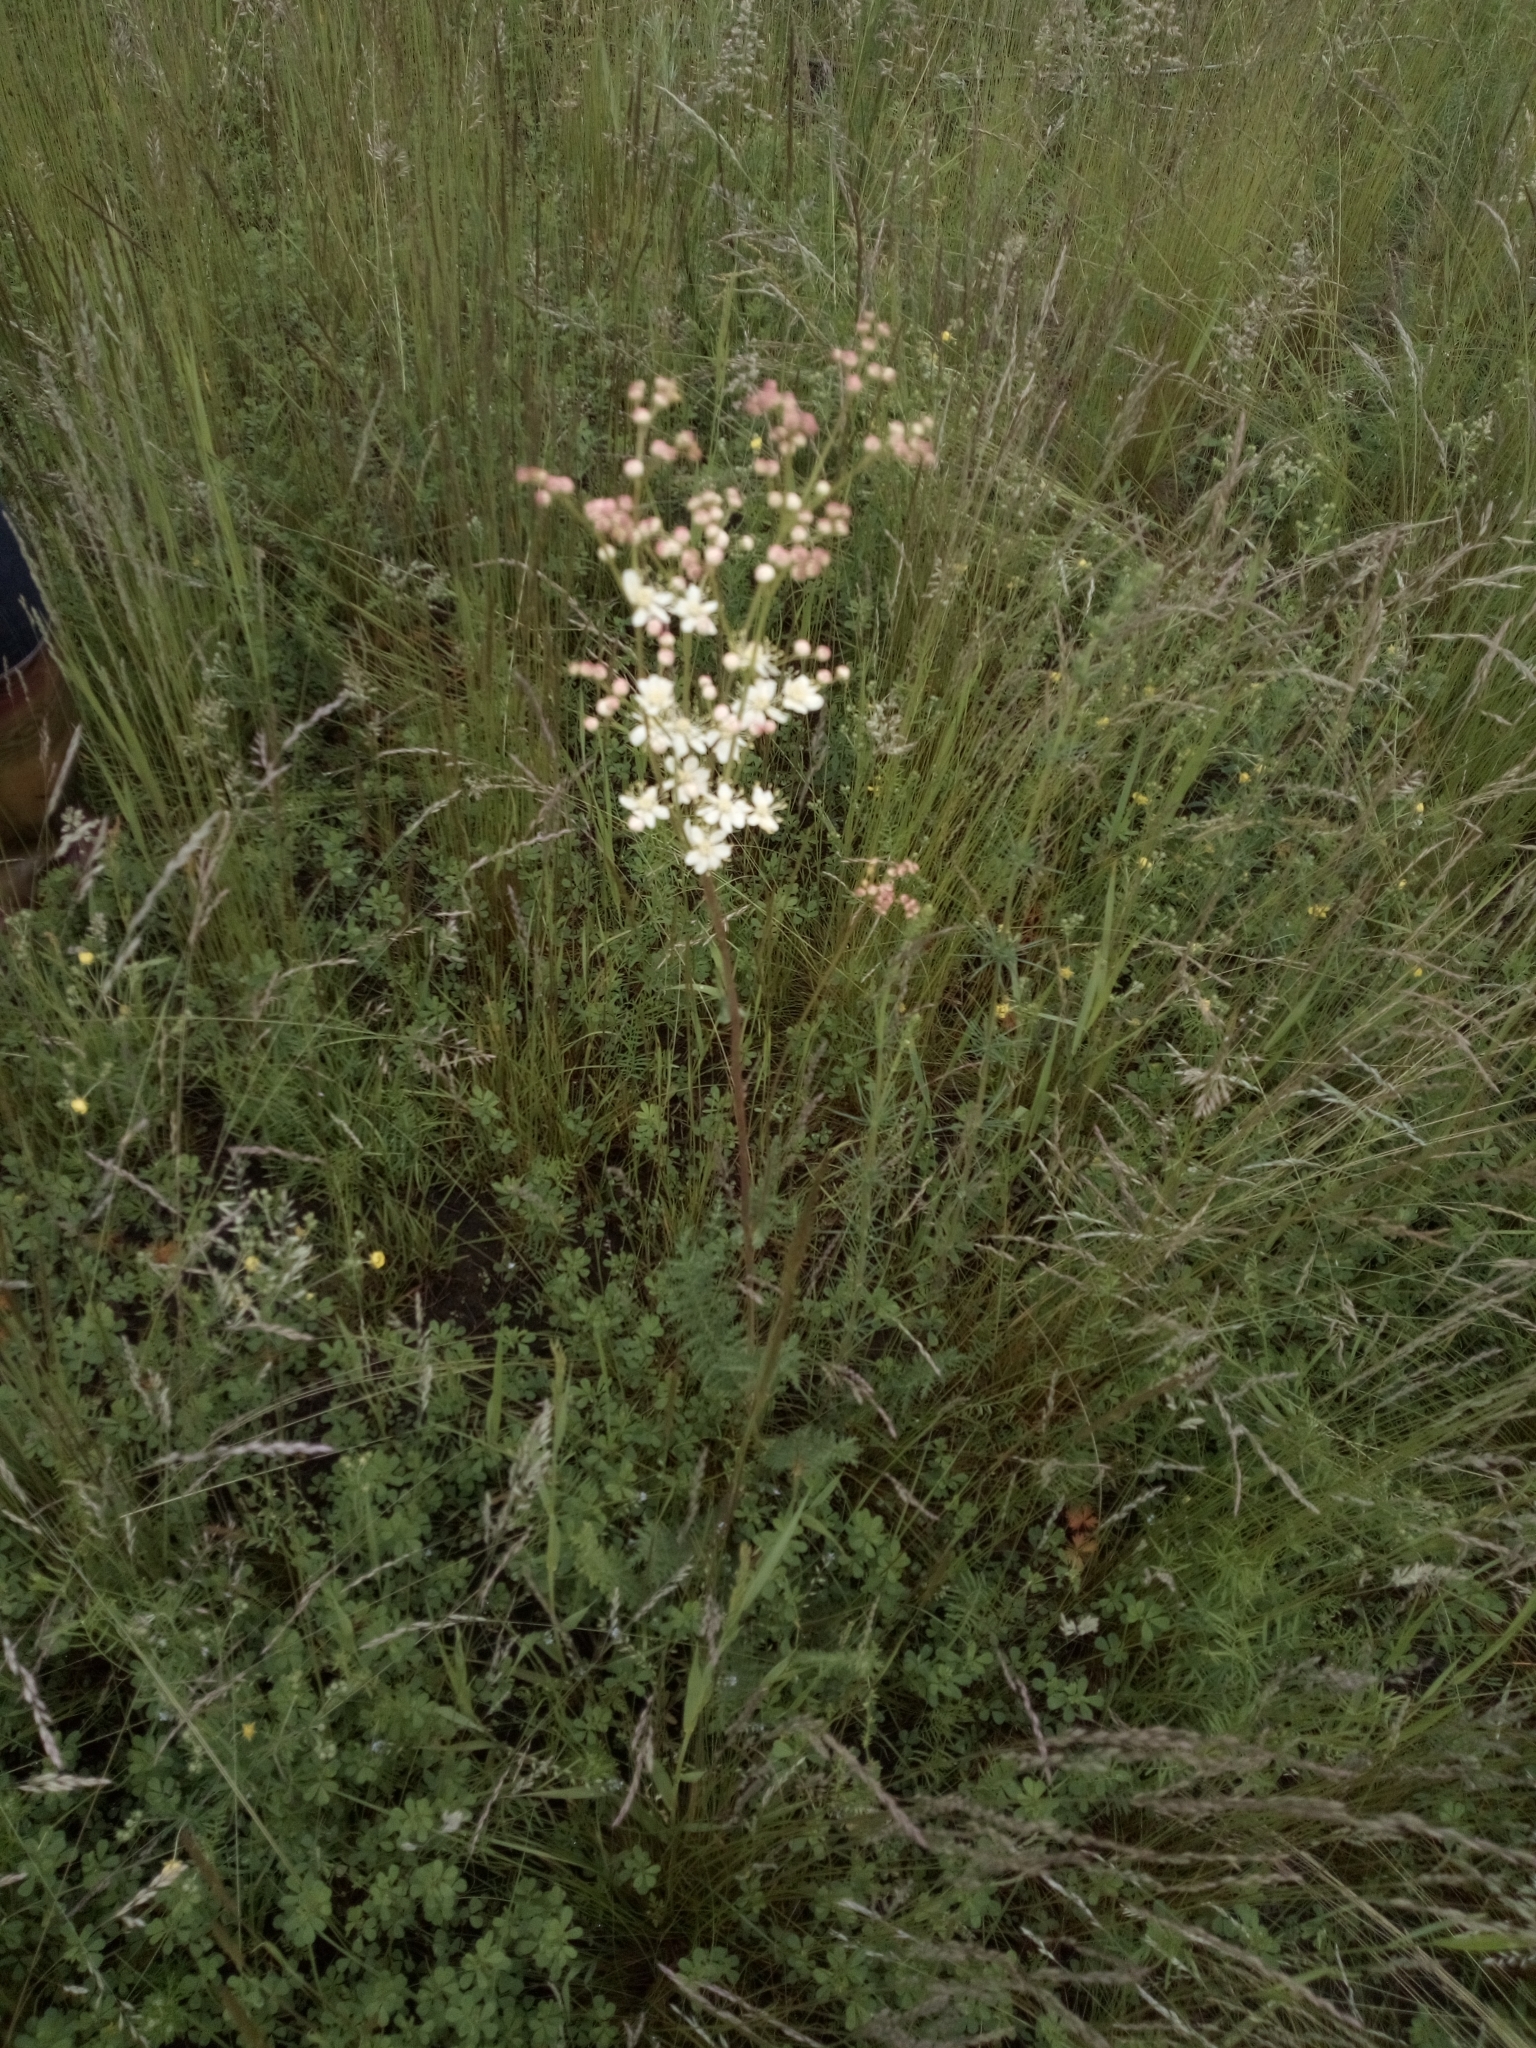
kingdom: Plantae
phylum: Tracheophyta
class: Magnoliopsida
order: Rosales
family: Rosaceae
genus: Filipendula
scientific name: Filipendula vulgaris
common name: Dropwort
